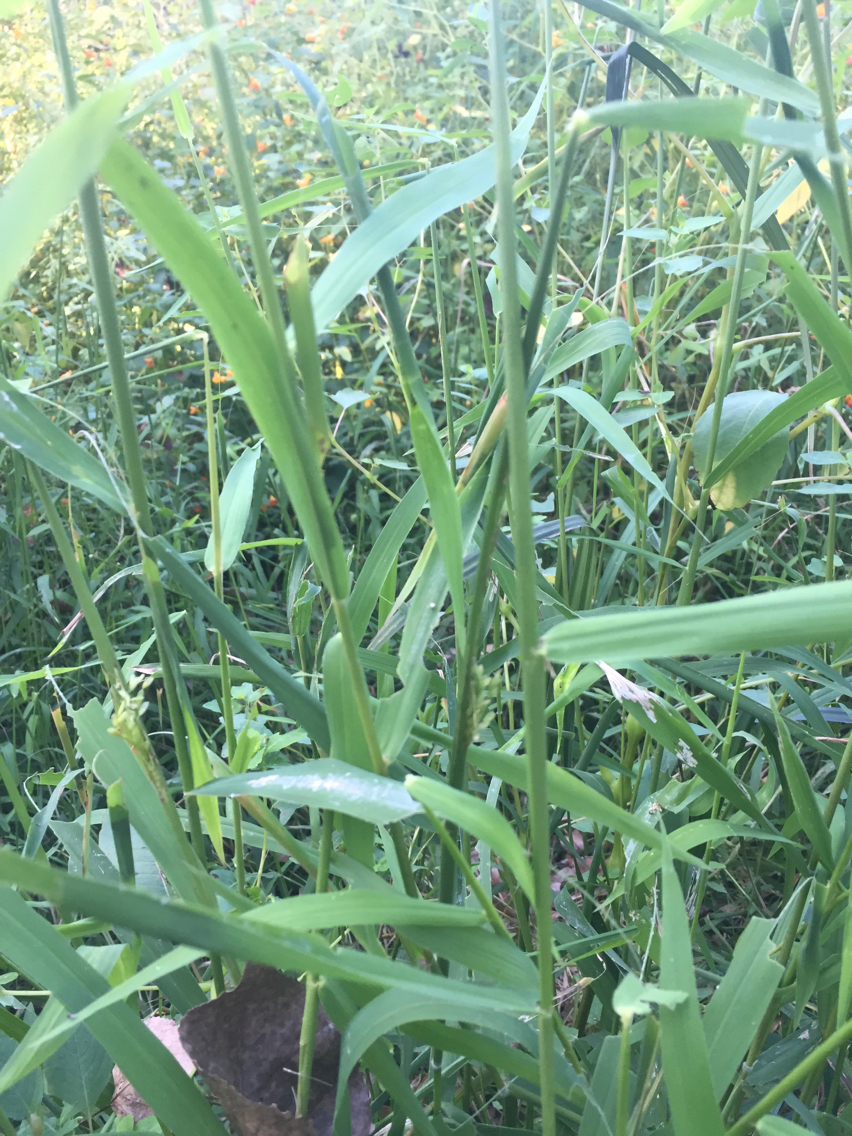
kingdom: Plantae
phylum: Tracheophyta
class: Liliopsida
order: Poales
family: Poaceae
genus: Leersia
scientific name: Leersia oryzoides
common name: Cut-grass
